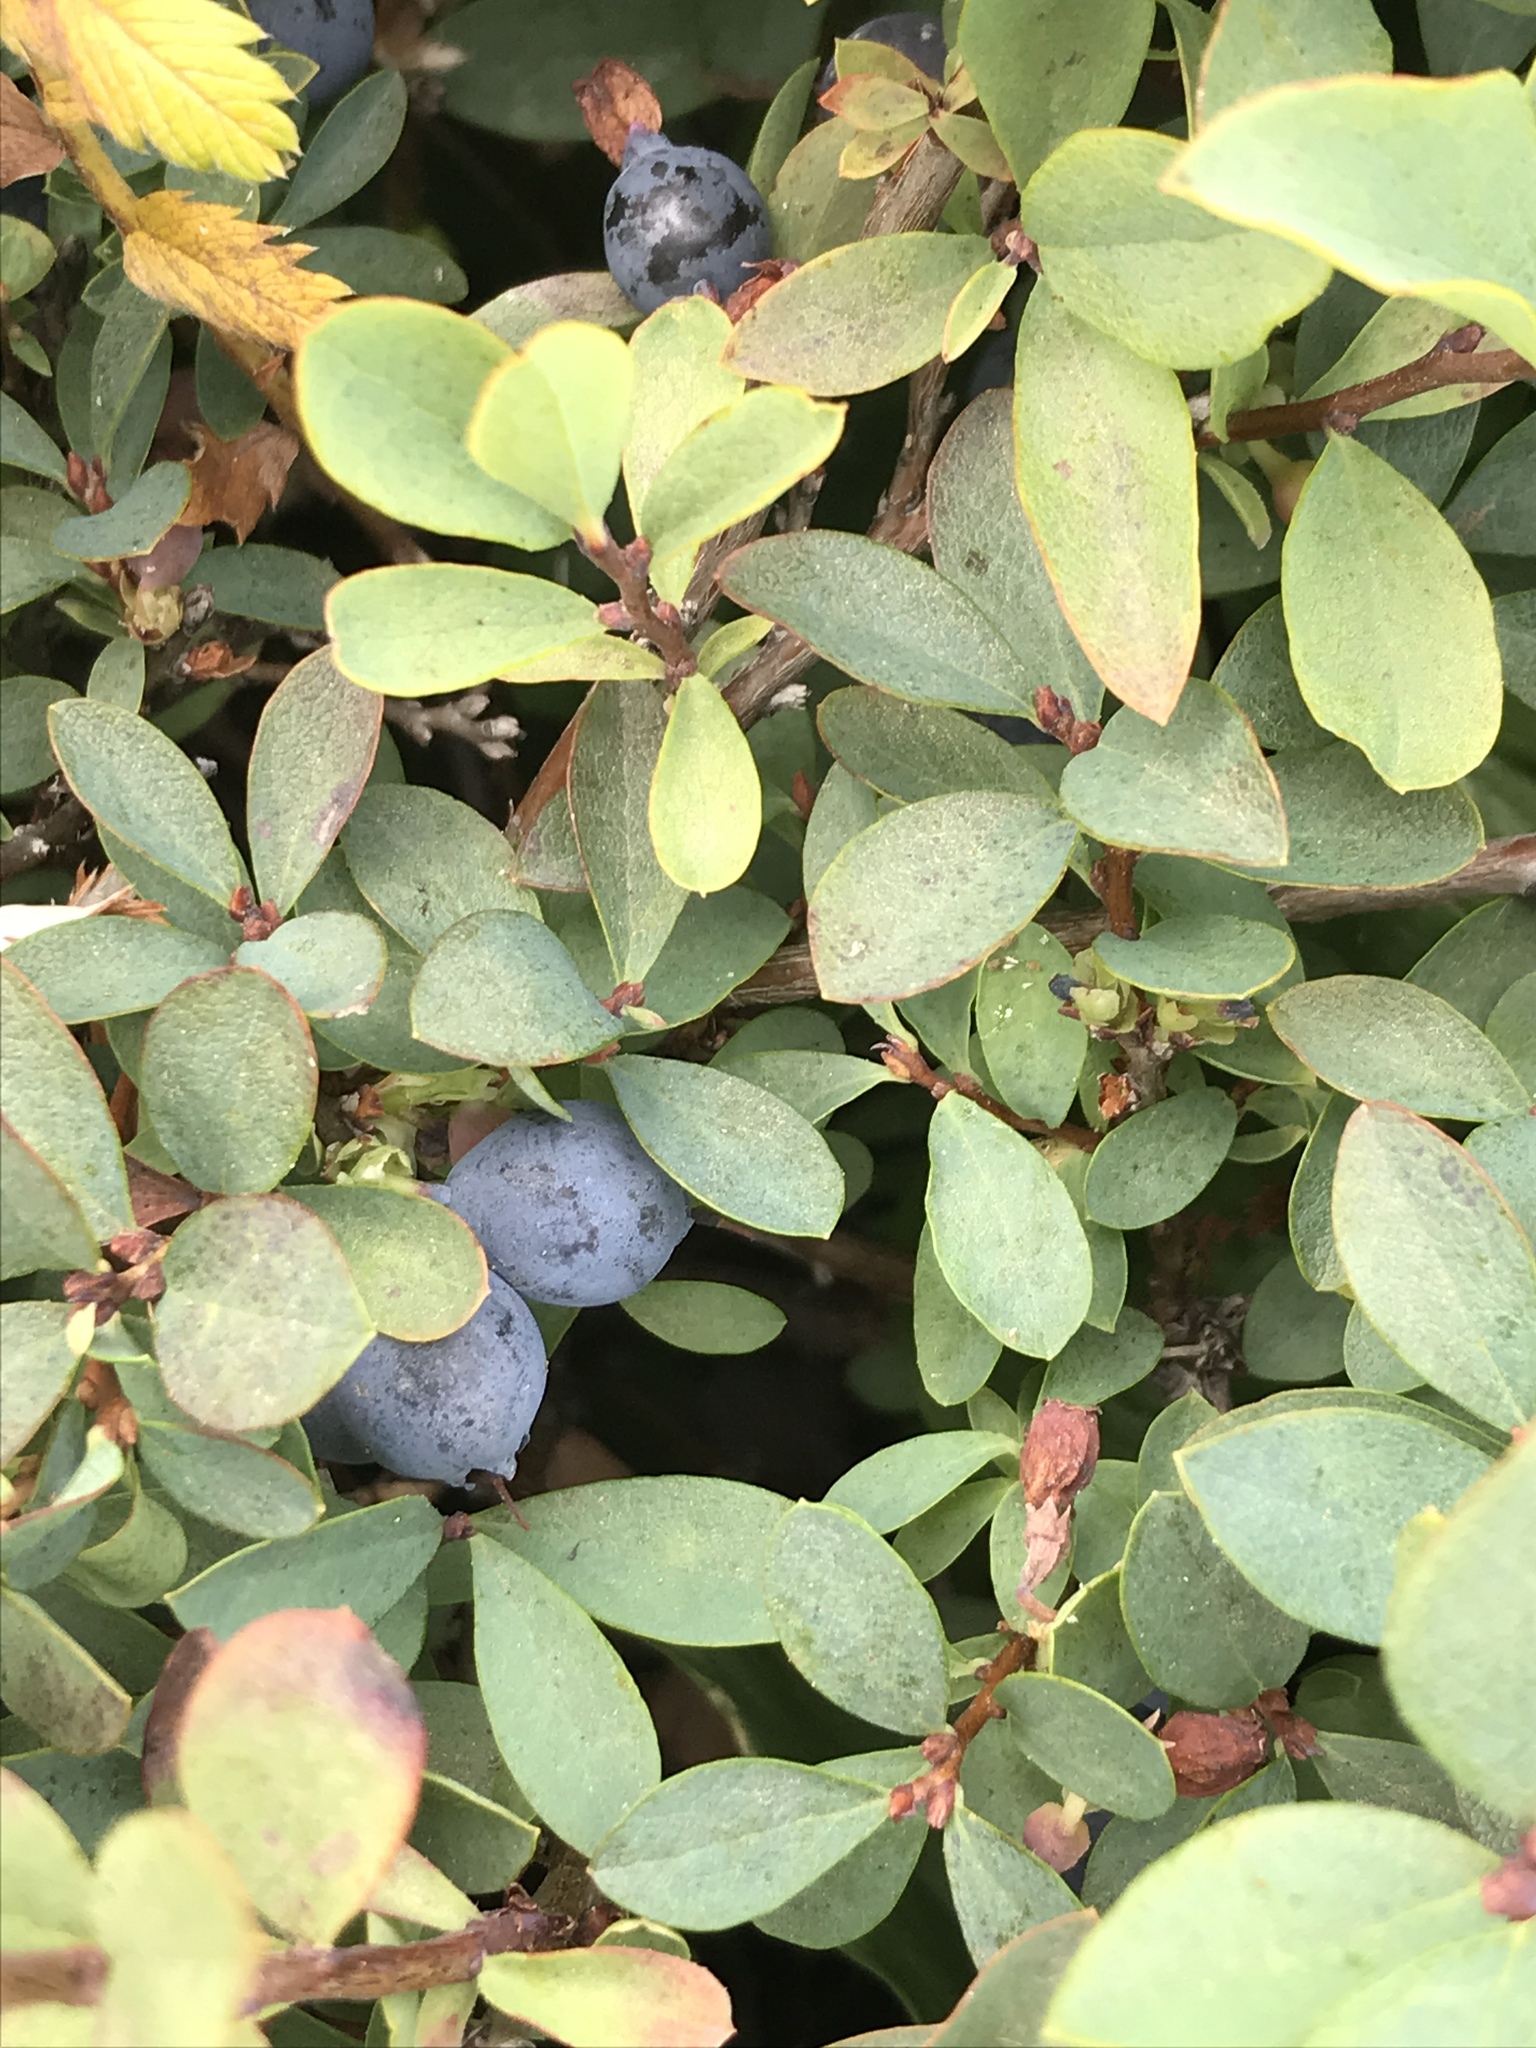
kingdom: Plantae
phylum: Tracheophyta
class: Magnoliopsida
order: Ericales
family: Ericaceae
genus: Vaccinium
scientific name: Vaccinium uliginosum
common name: Bog bilberry
